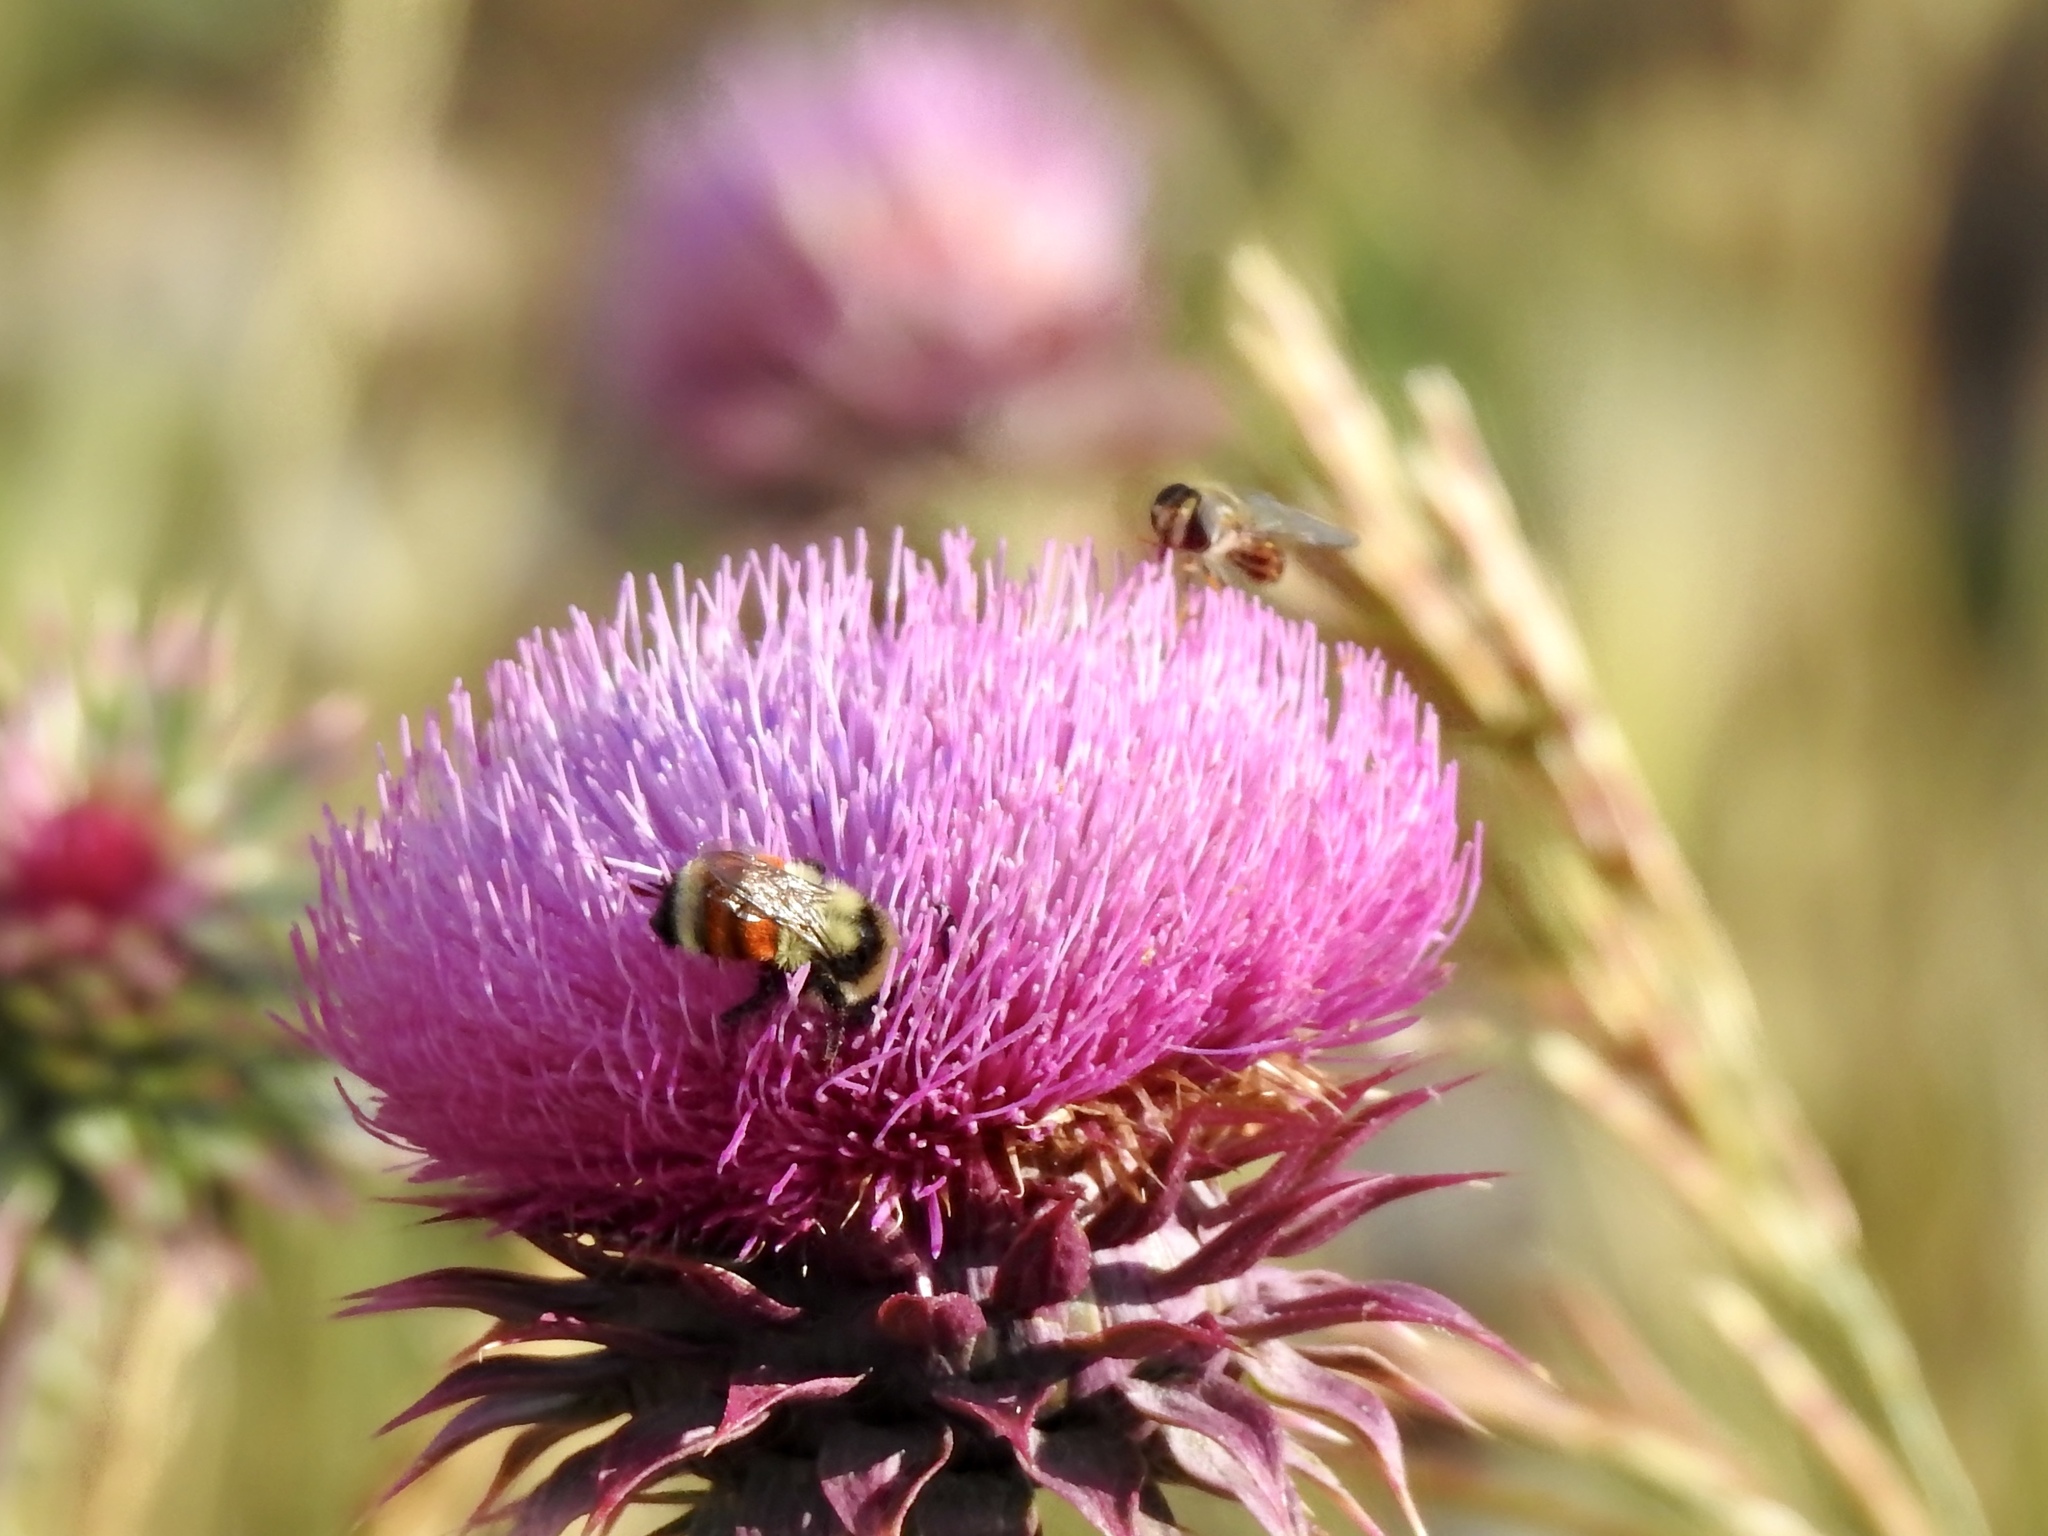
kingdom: Animalia
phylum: Arthropoda
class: Insecta
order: Hymenoptera
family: Apidae
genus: Bombus
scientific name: Bombus huntii
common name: Hunt bumble bee
